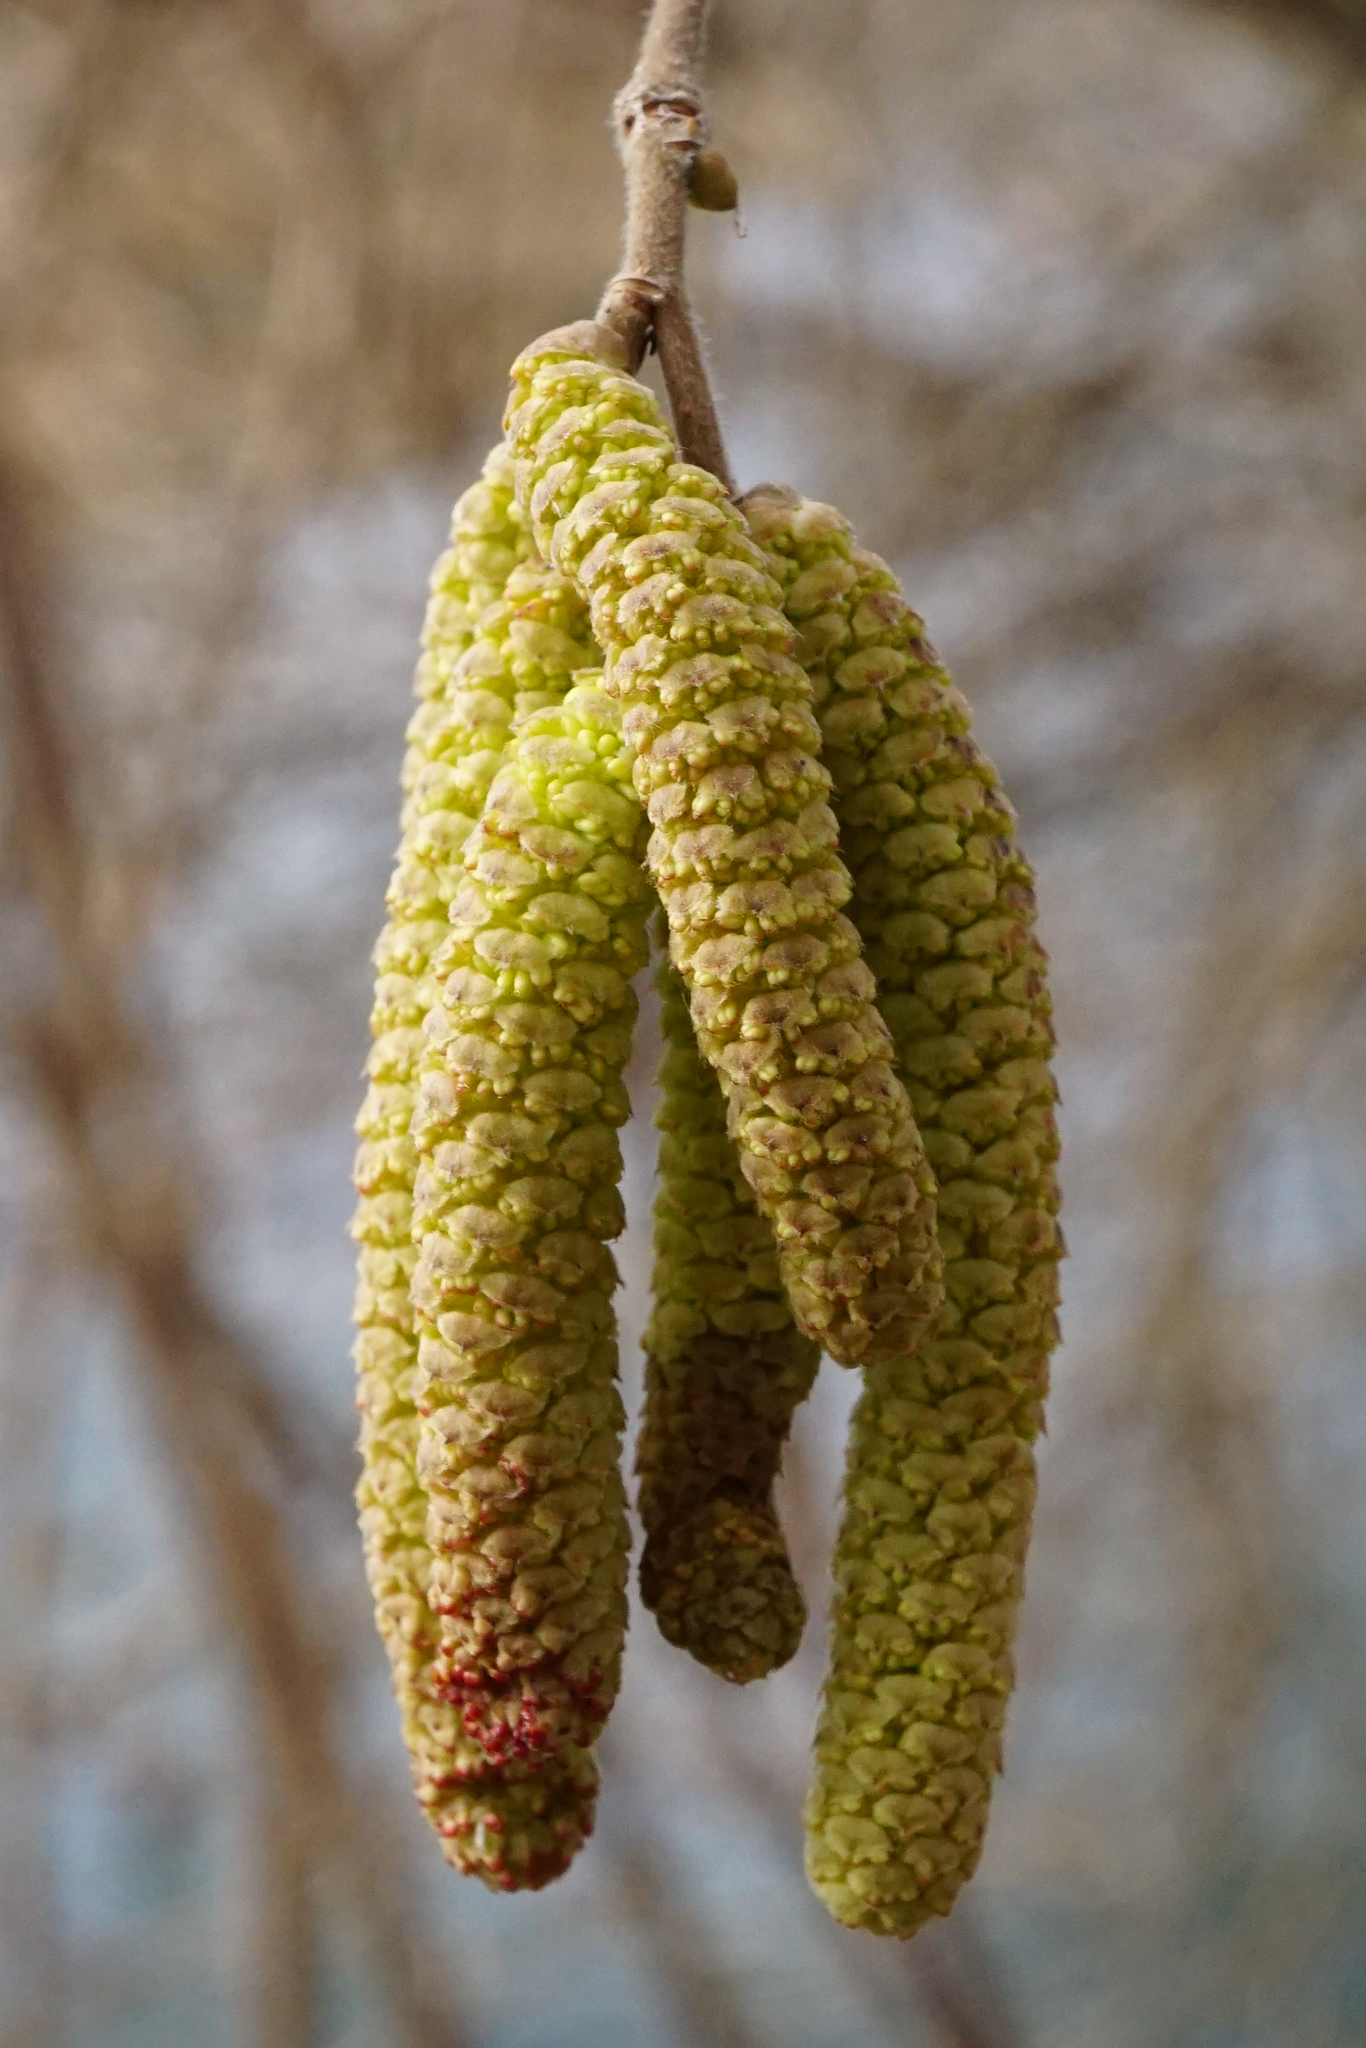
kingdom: Plantae
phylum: Tracheophyta
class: Magnoliopsida
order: Fagales
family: Betulaceae
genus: Corylus
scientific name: Corylus avellana
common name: European hazel
